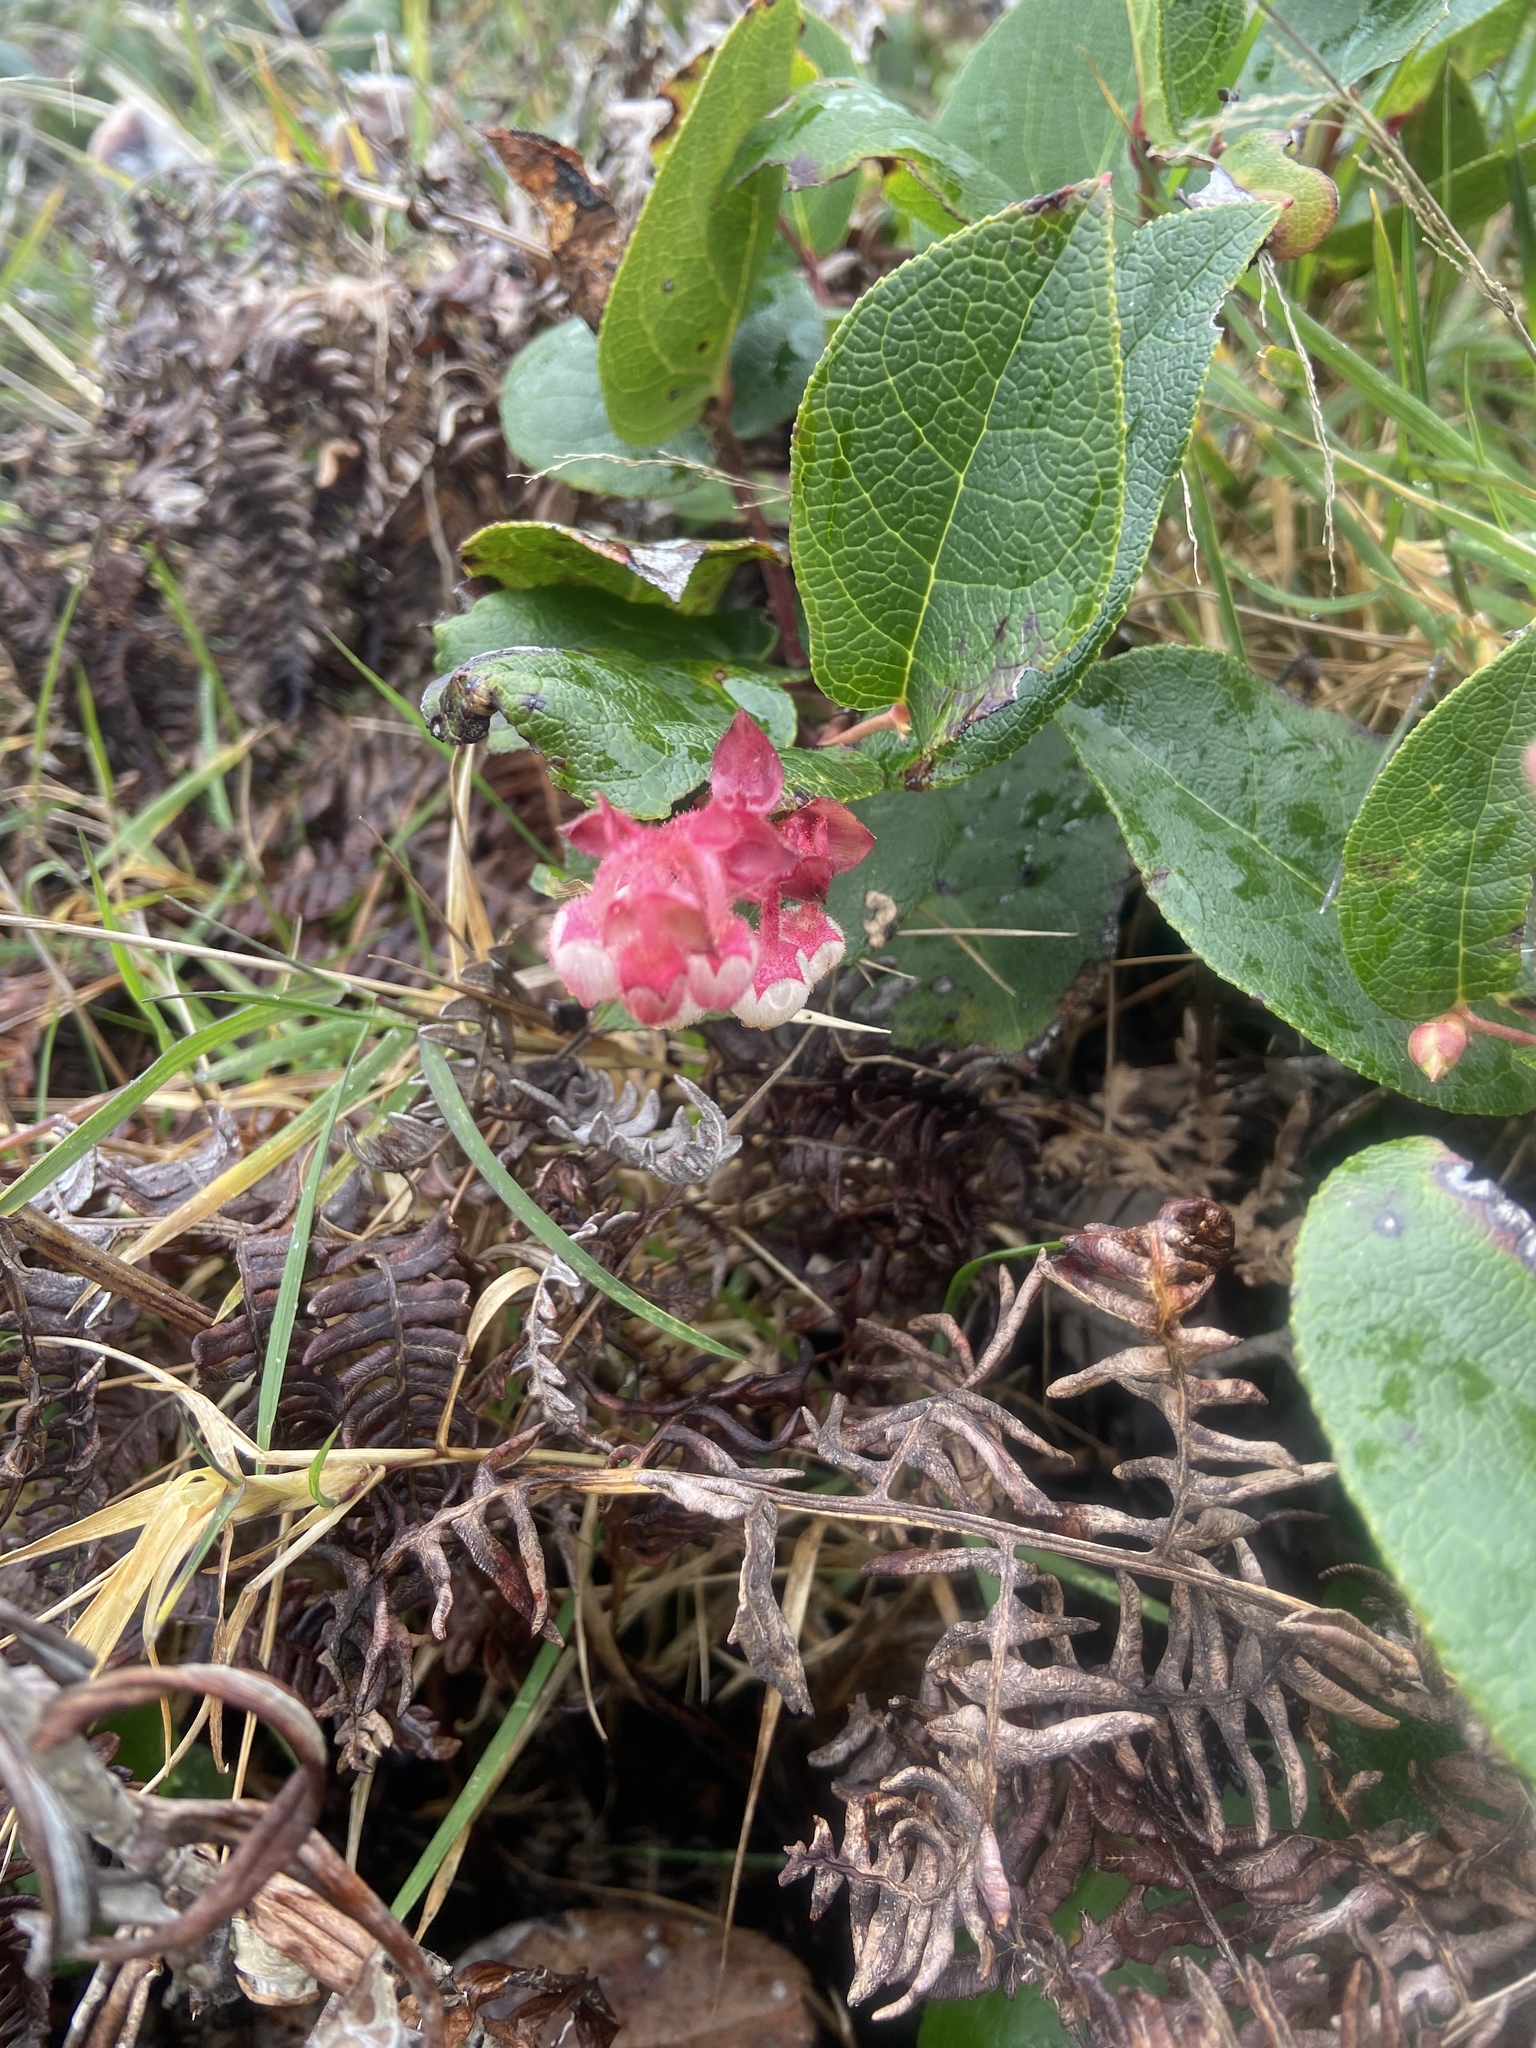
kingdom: Plantae
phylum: Tracheophyta
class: Magnoliopsida
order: Ericales
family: Ericaceae
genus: Gaultheria
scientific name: Gaultheria shallon
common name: Shallon
